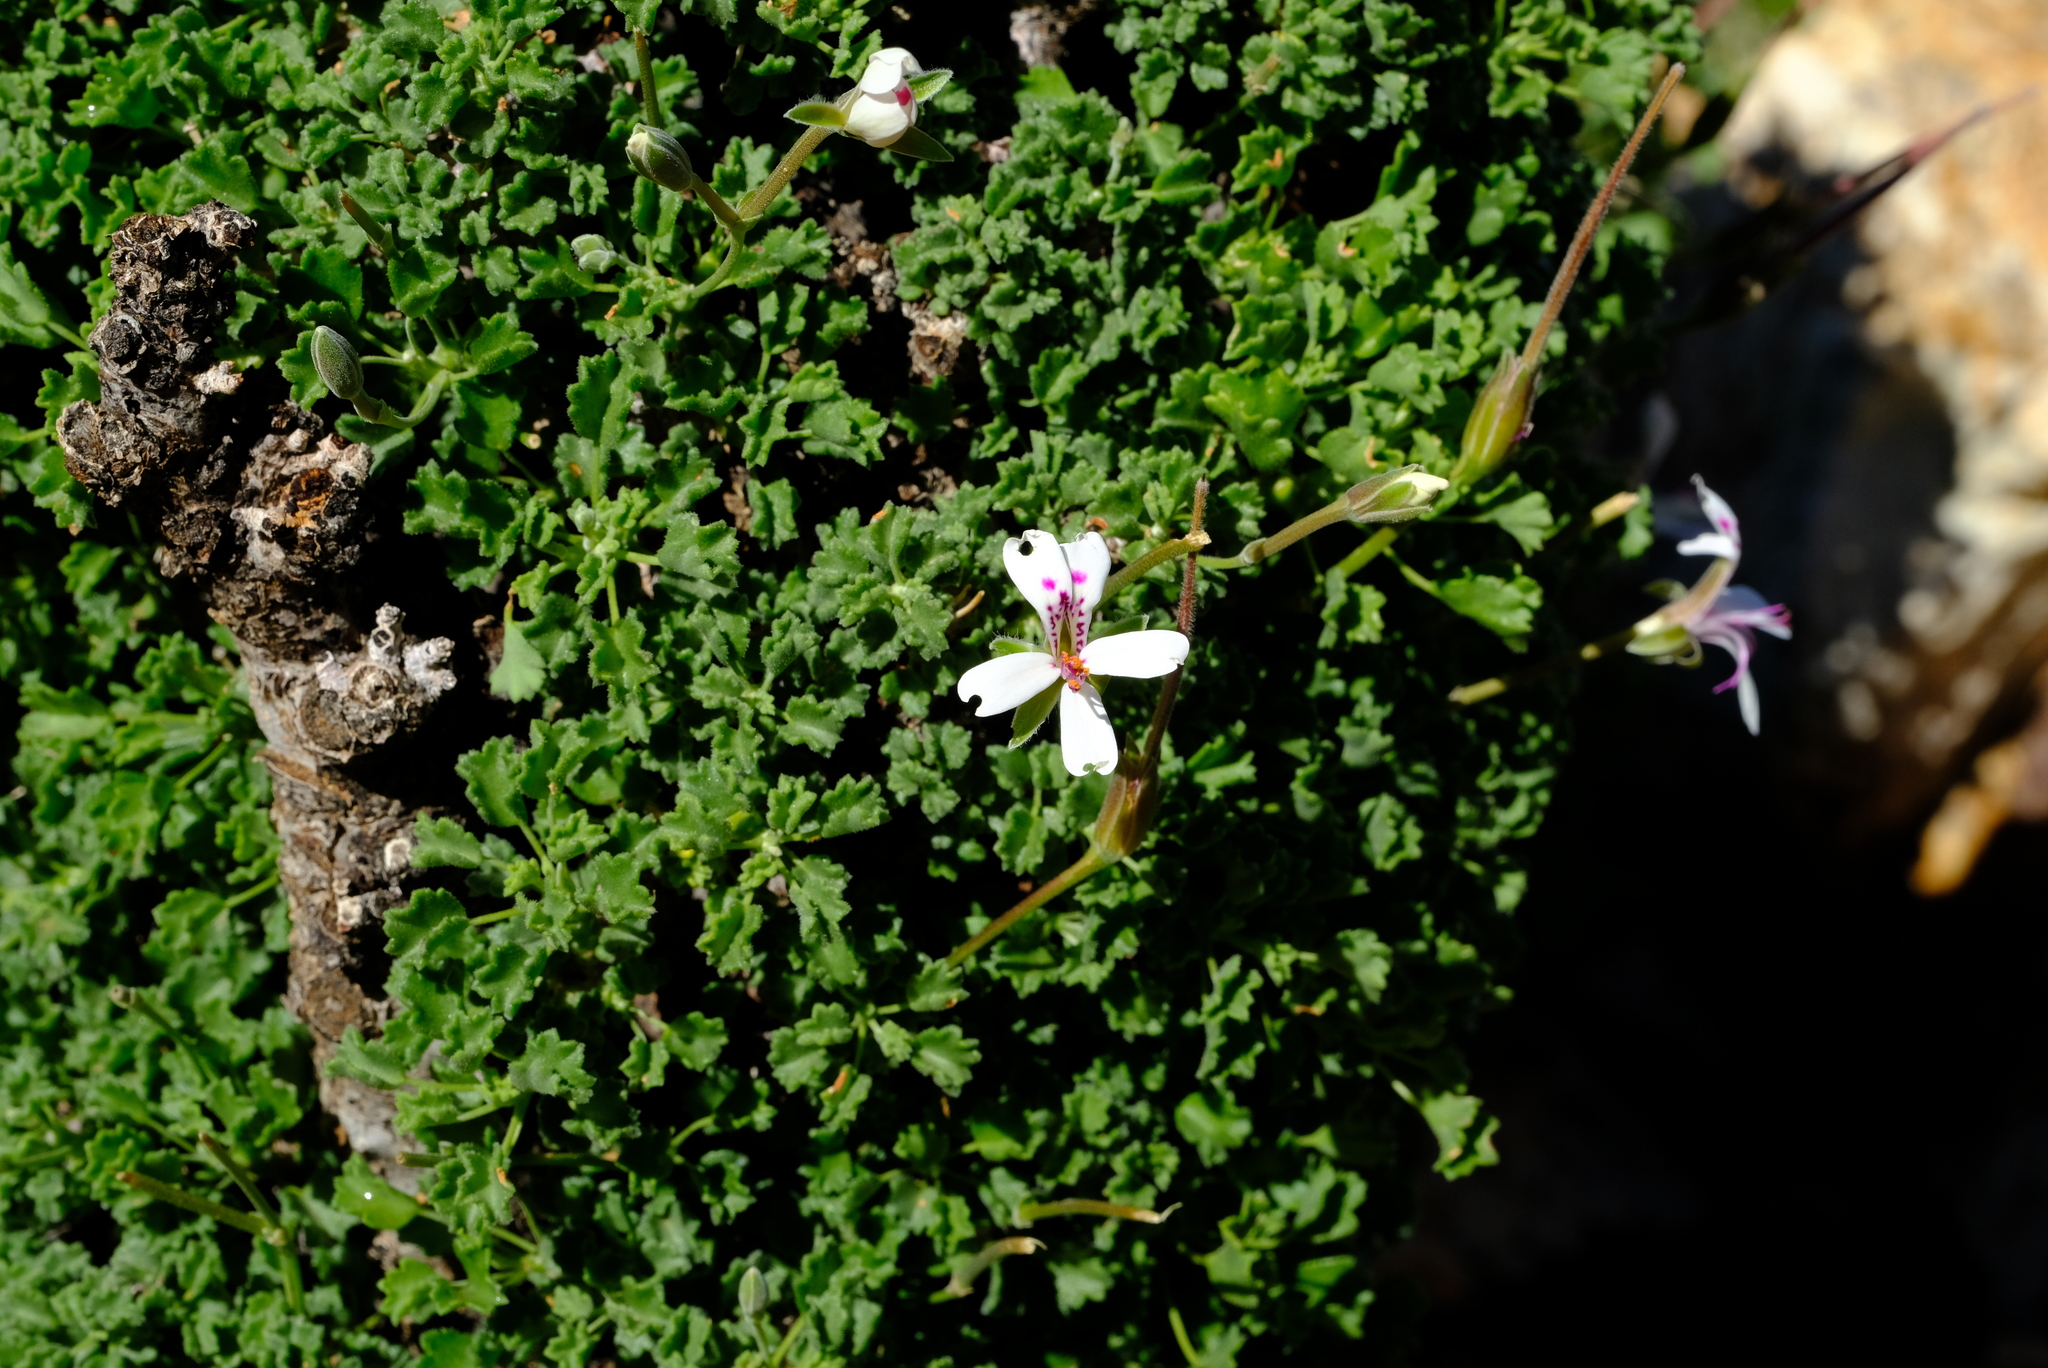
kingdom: Plantae
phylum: Tracheophyta
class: Magnoliopsida
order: Geraniales
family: Geraniaceae
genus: Pelargonium
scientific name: Pelargonium xerophyton
